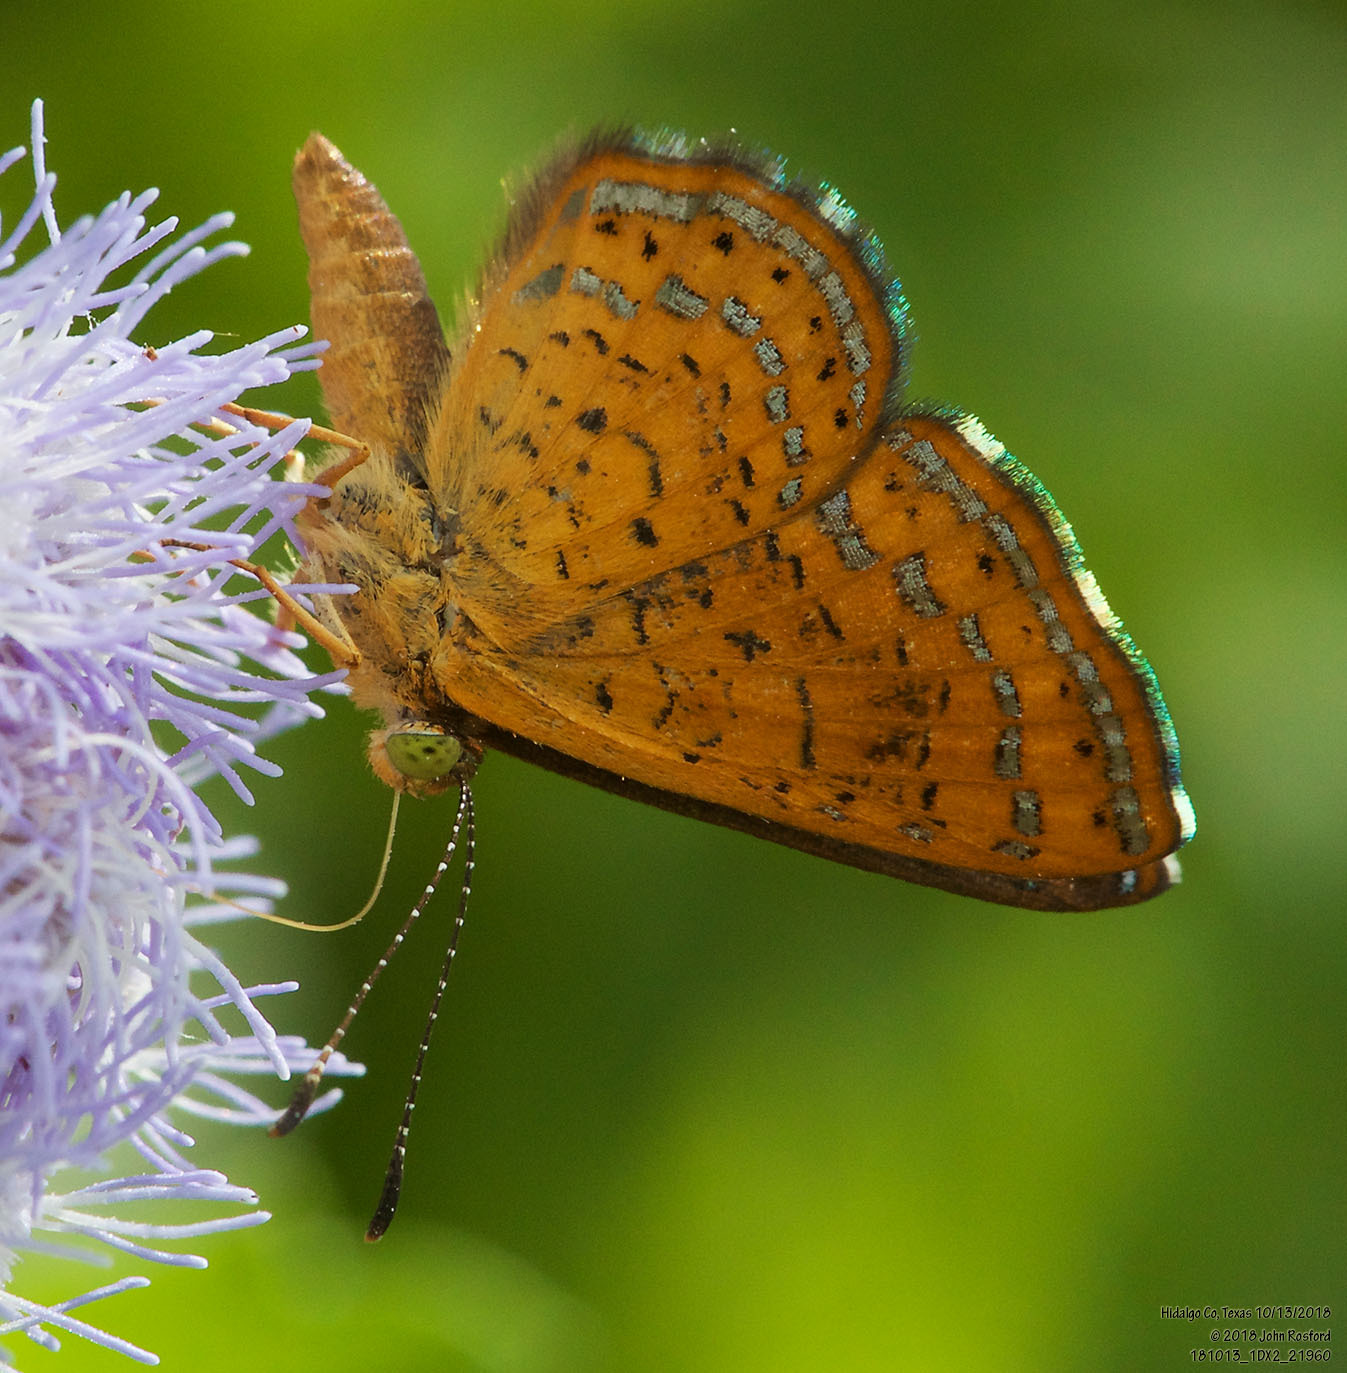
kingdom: Animalia
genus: Calephelis
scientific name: Calephelis nemesis
